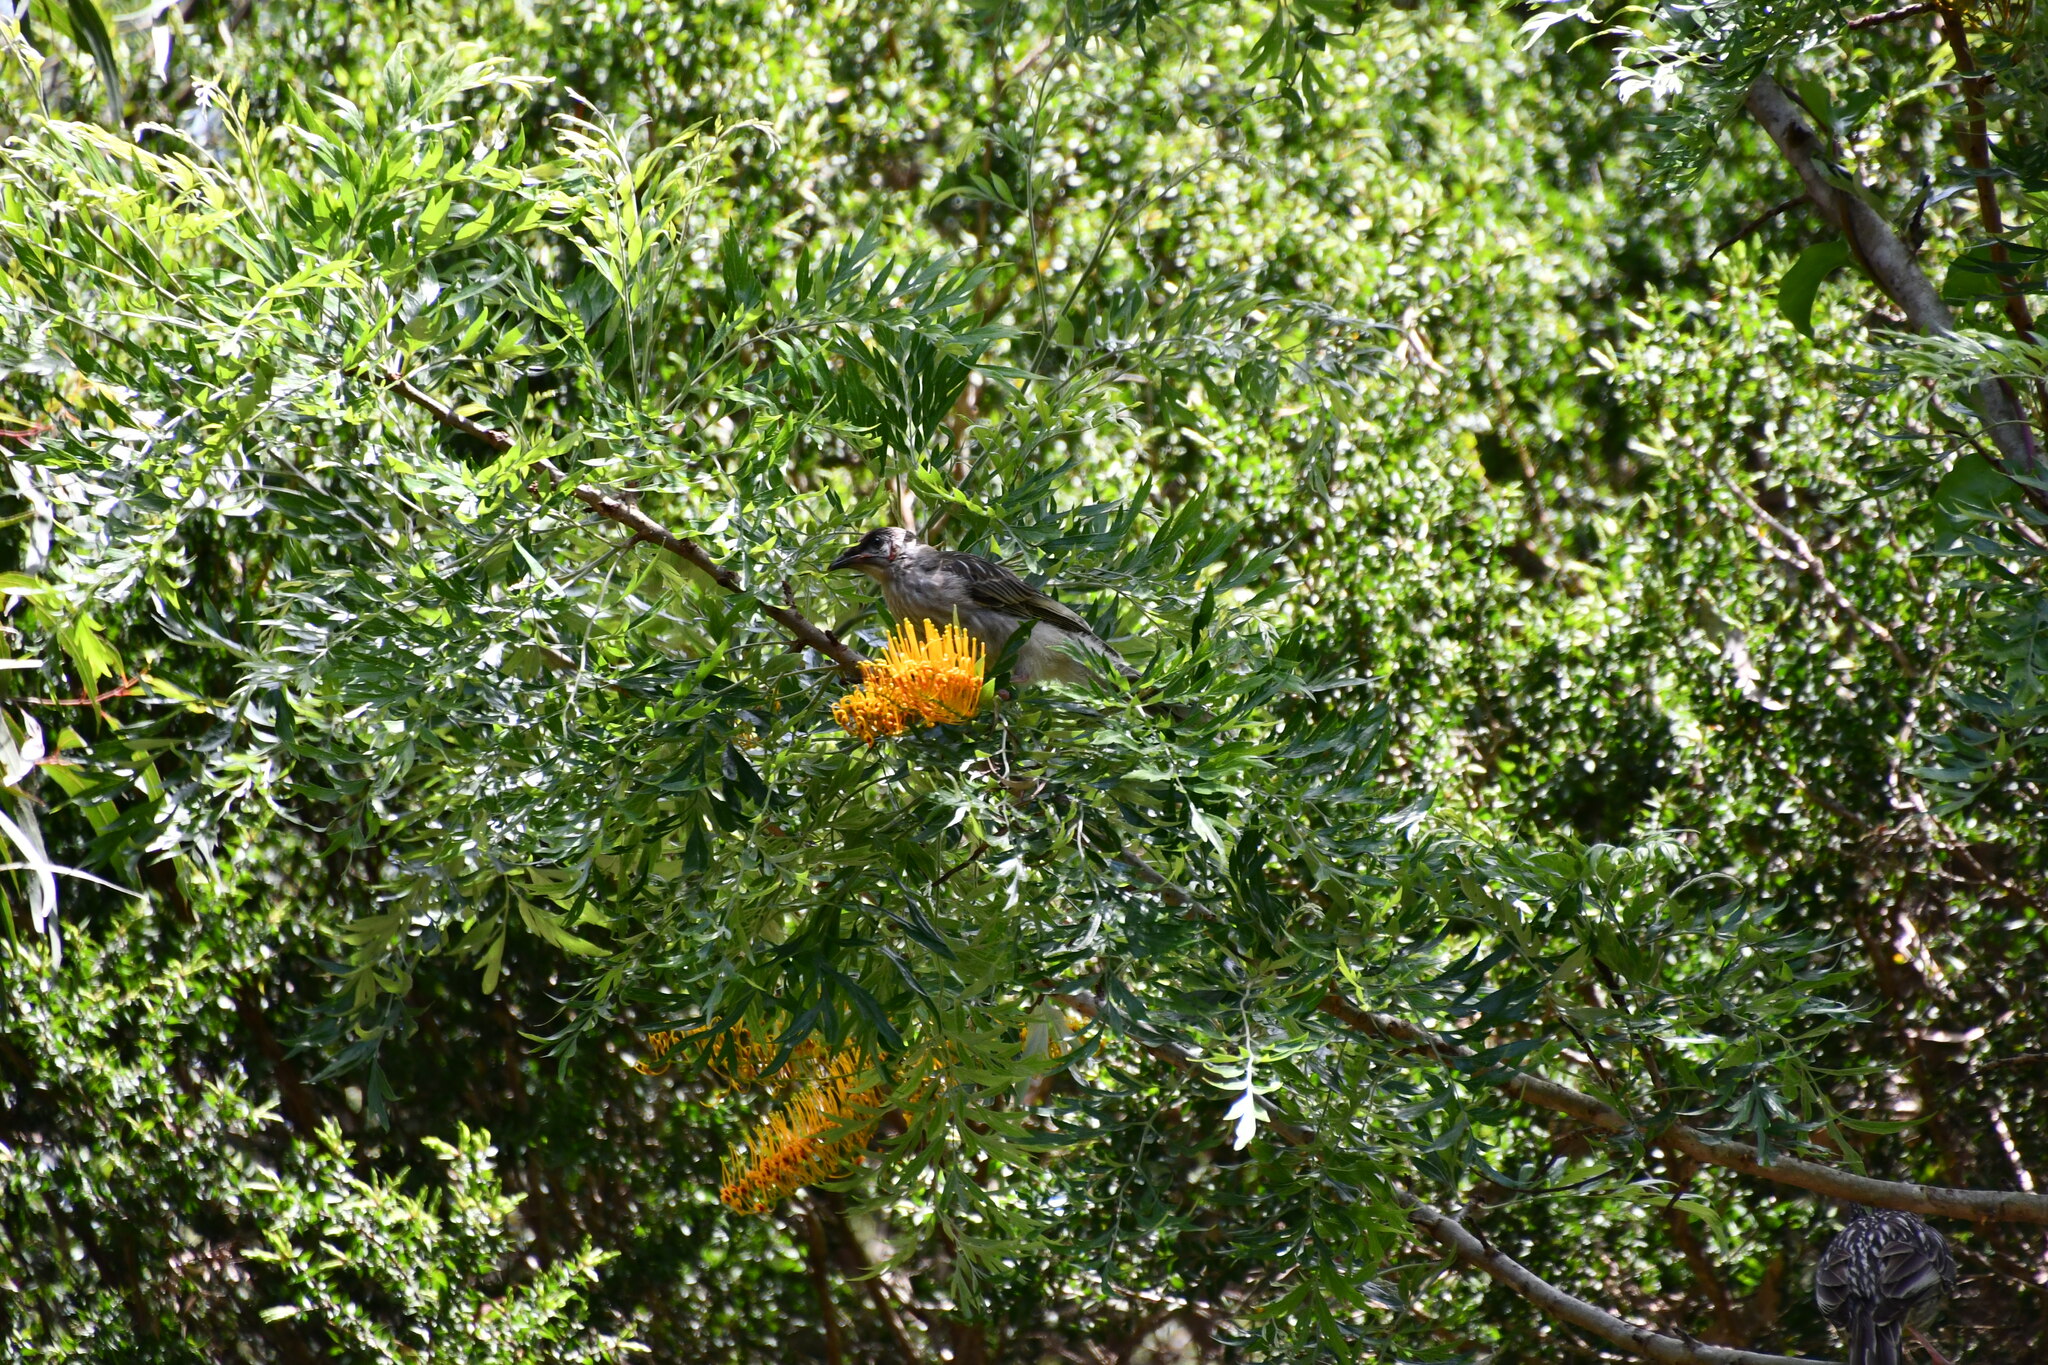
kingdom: Animalia
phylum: Chordata
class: Aves
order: Passeriformes
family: Meliphagidae
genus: Anthochaera
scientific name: Anthochaera carunculata
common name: Red wattlebird
